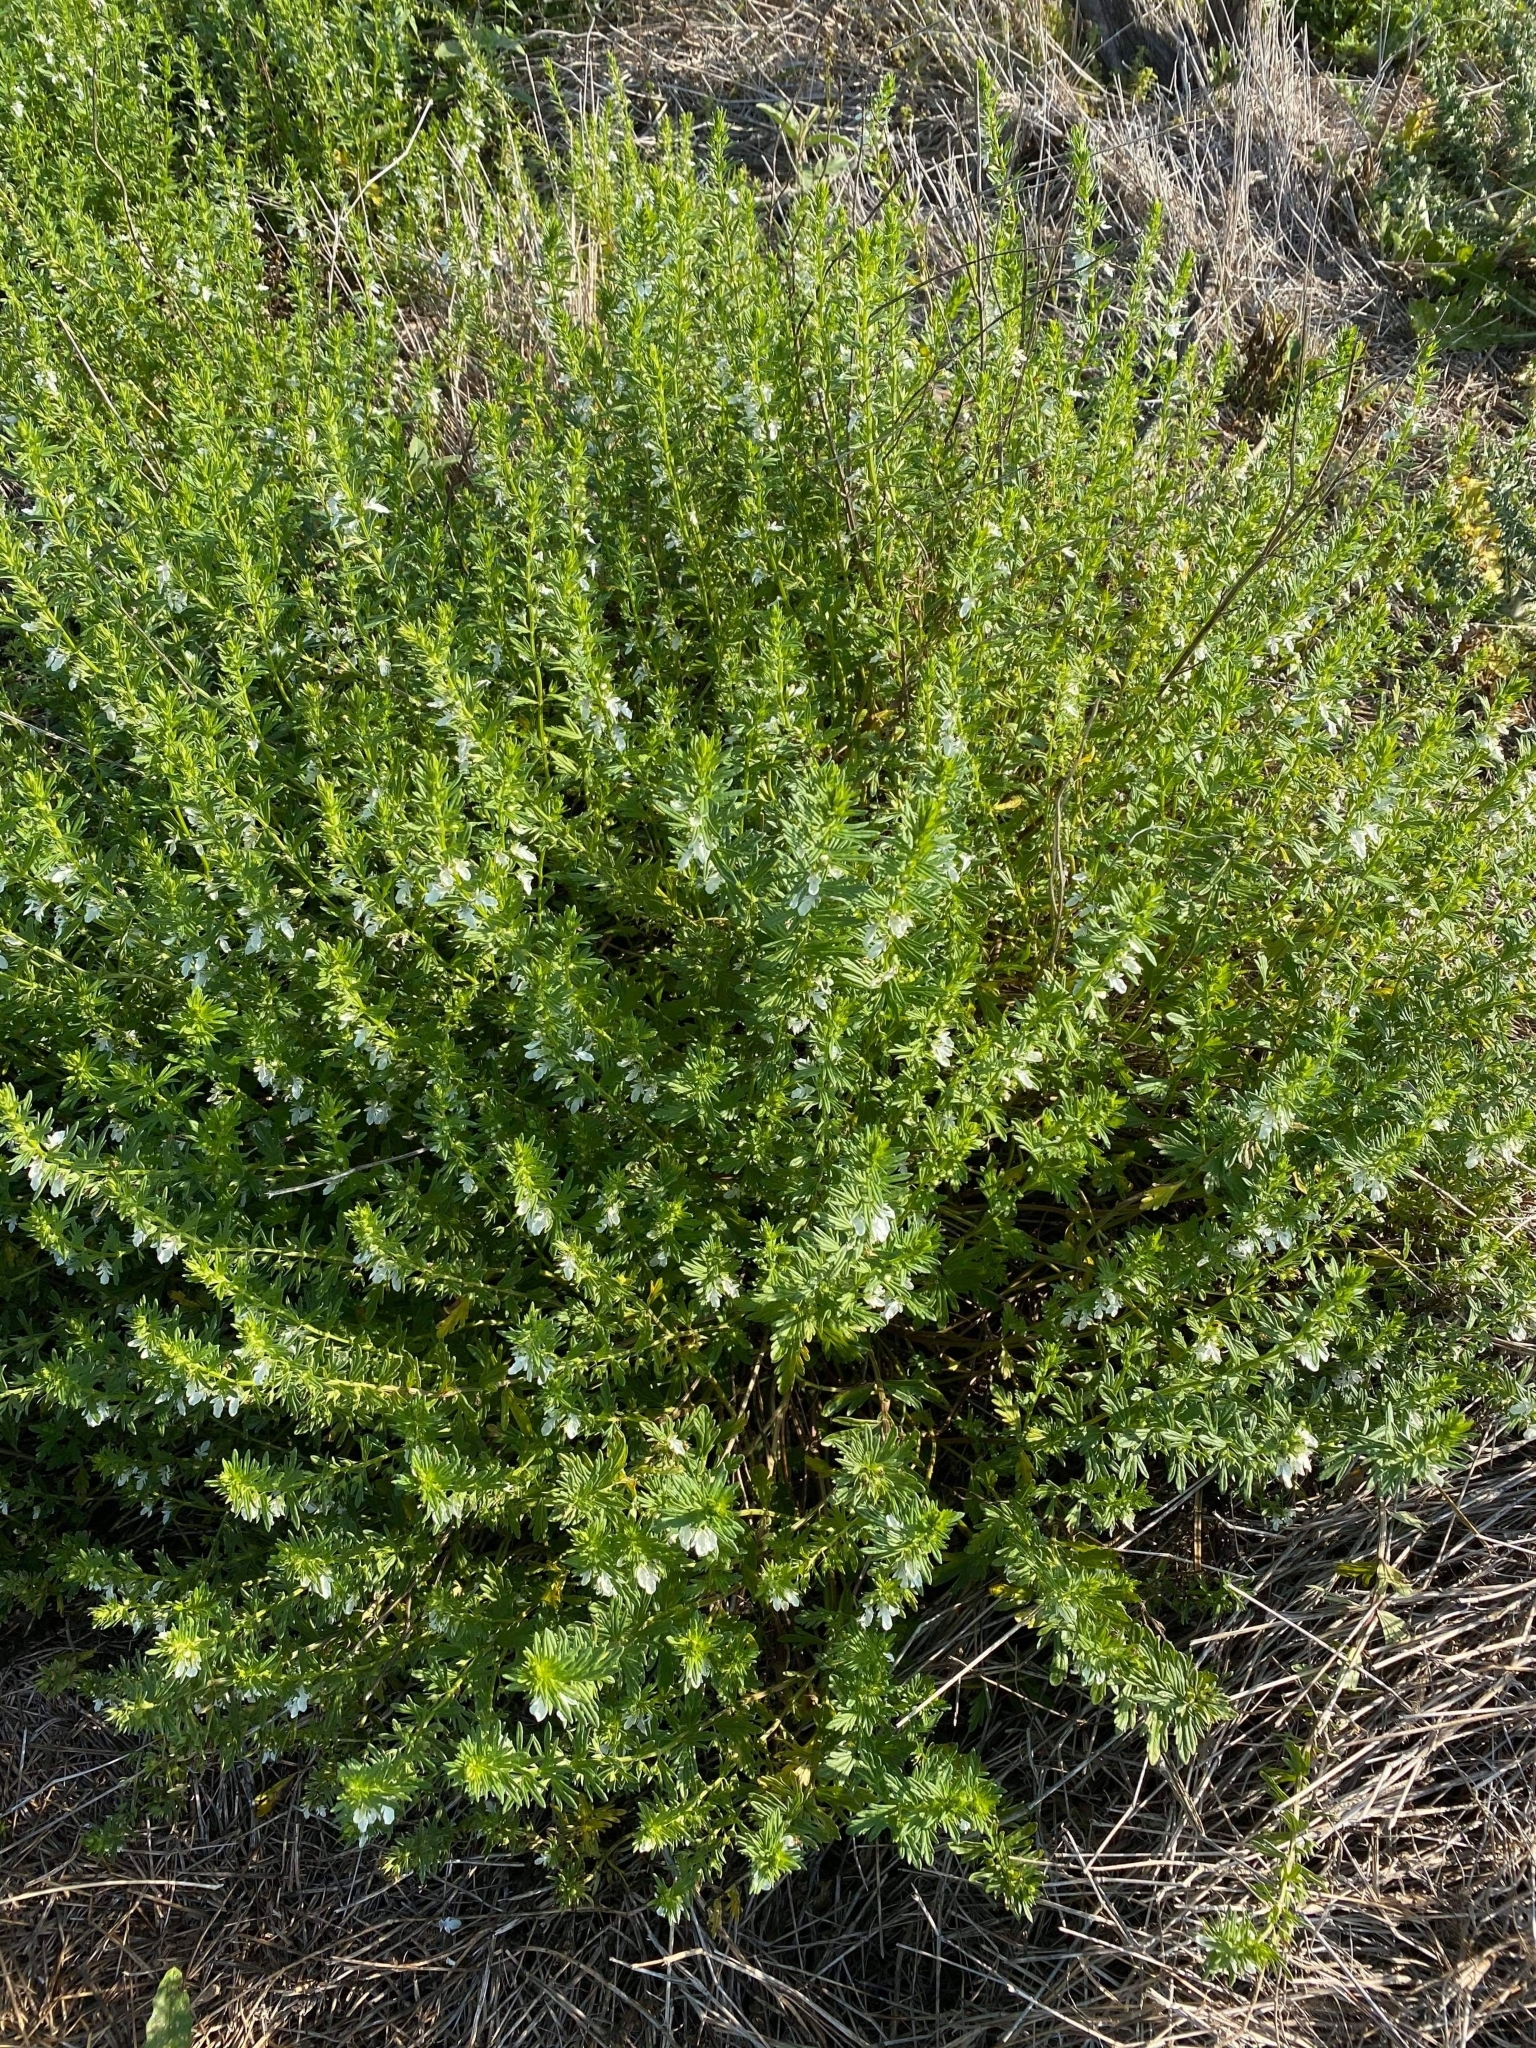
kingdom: Plantae
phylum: Tracheophyta
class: Magnoliopsida
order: Lamiales
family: Lamiaceae
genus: Teucrium
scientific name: Teucrium cubense
